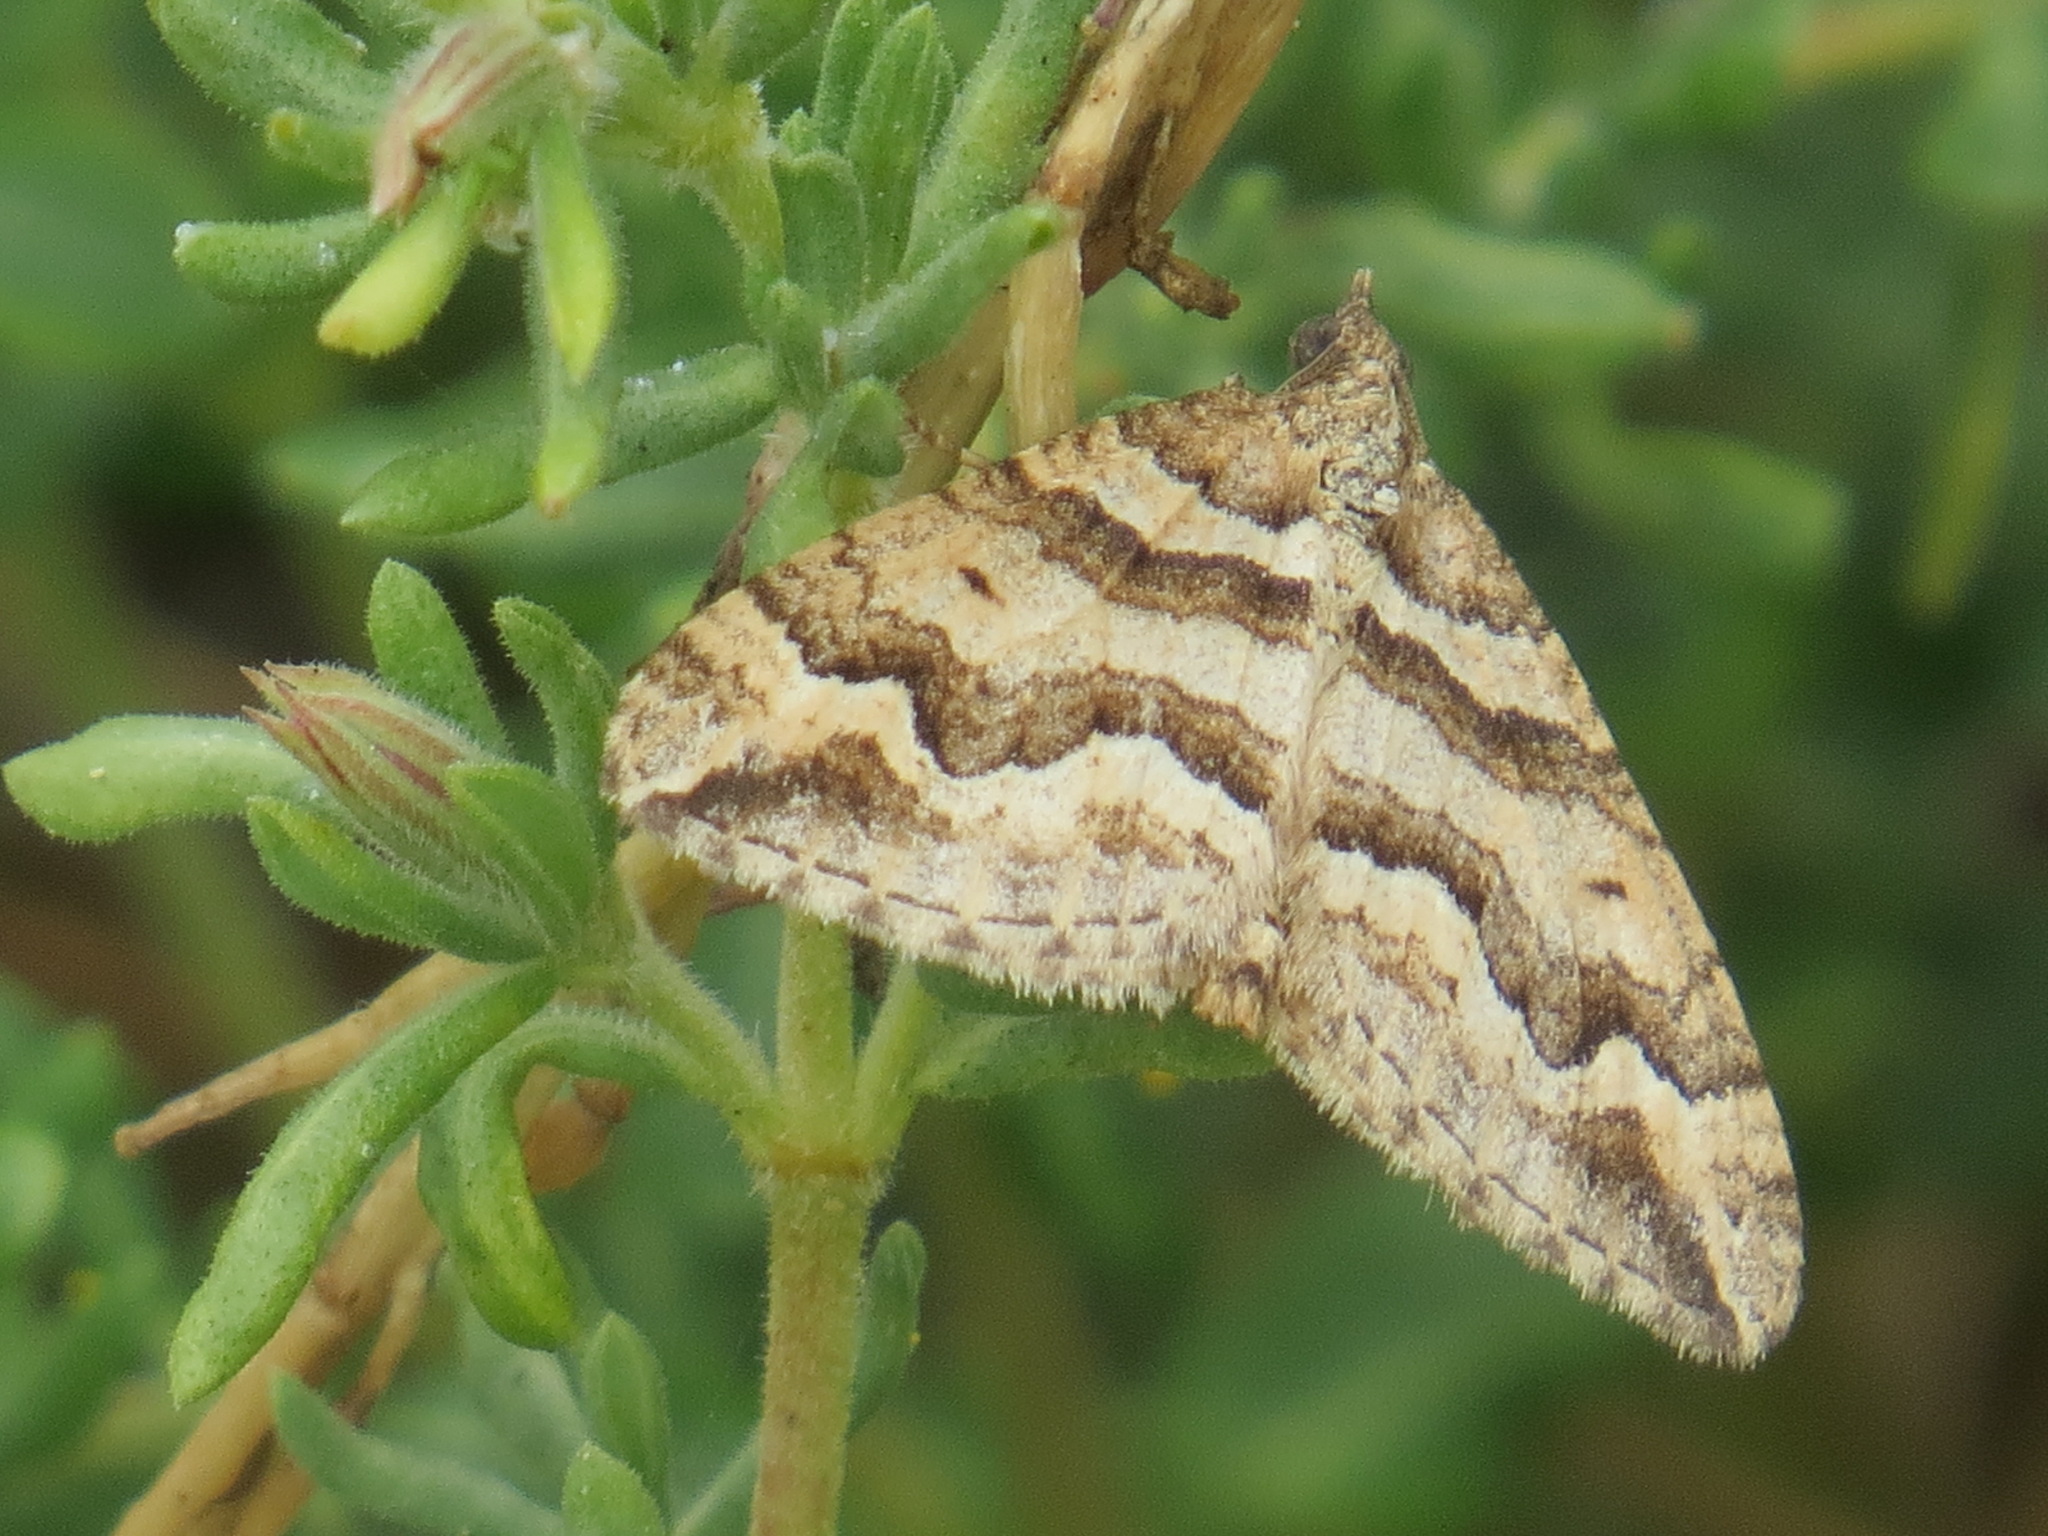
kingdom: Animalia
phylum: Arthropoda
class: Insecta
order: Lepidoptera
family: Geometridae
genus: Perizoma
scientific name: Perizoma epictata
